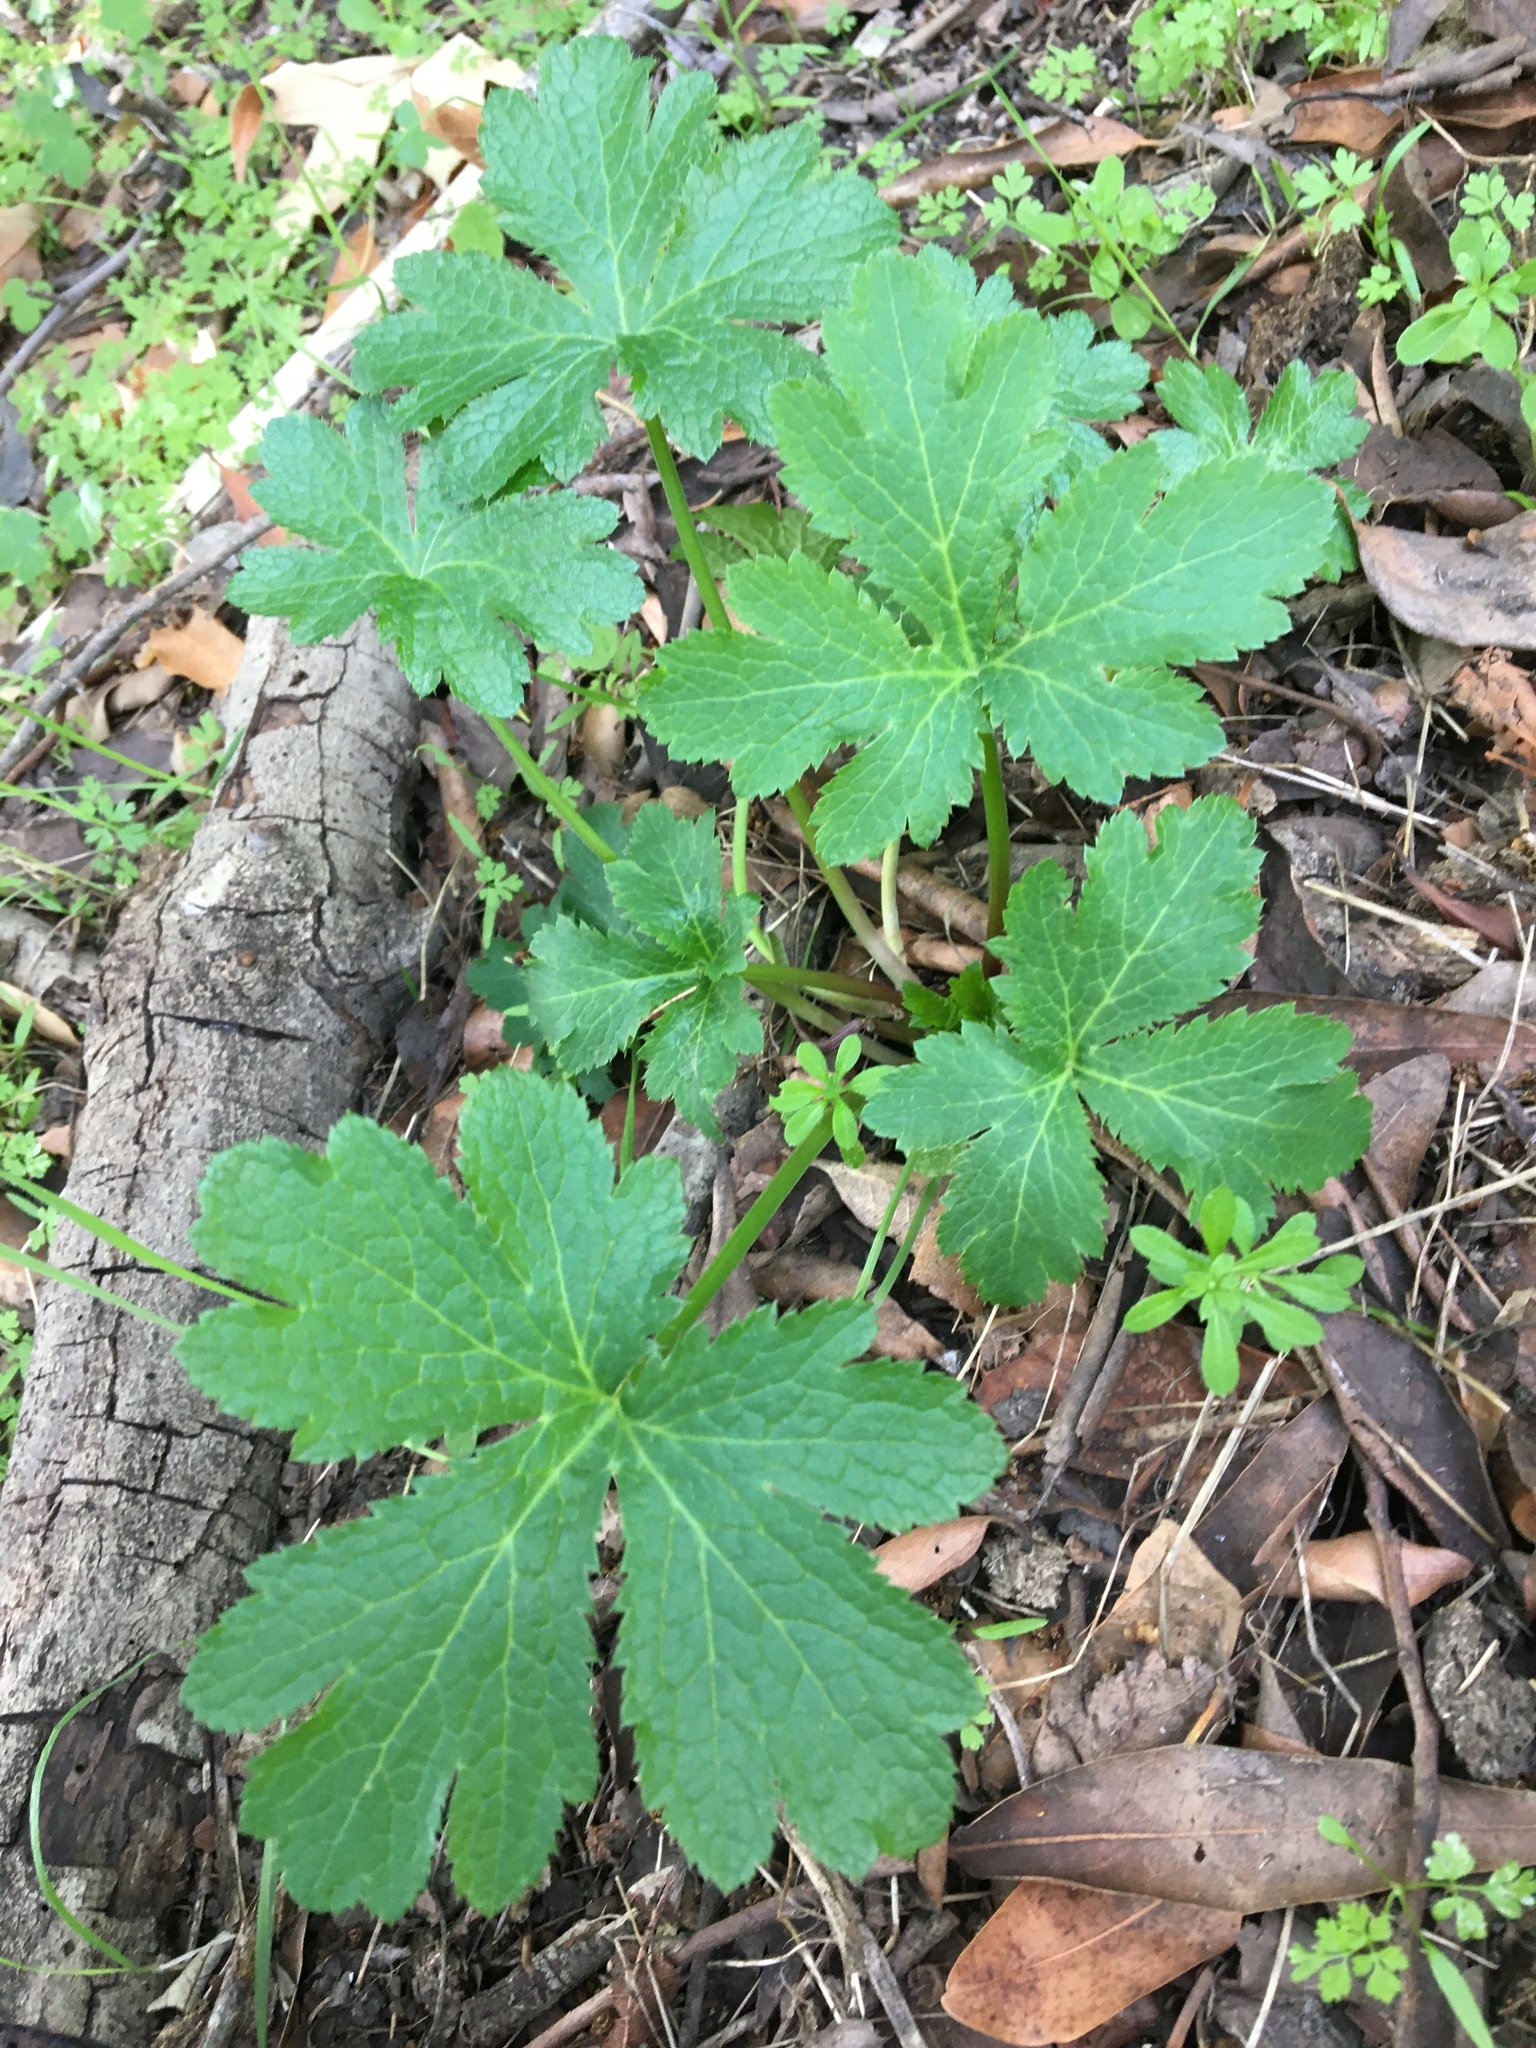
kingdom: Plantae
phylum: Tracheophyta
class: Magnoliopsida
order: Apiales
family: Apiaceae
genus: Sanicula
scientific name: Sanicula crassicaulis
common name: Western snakeroot
